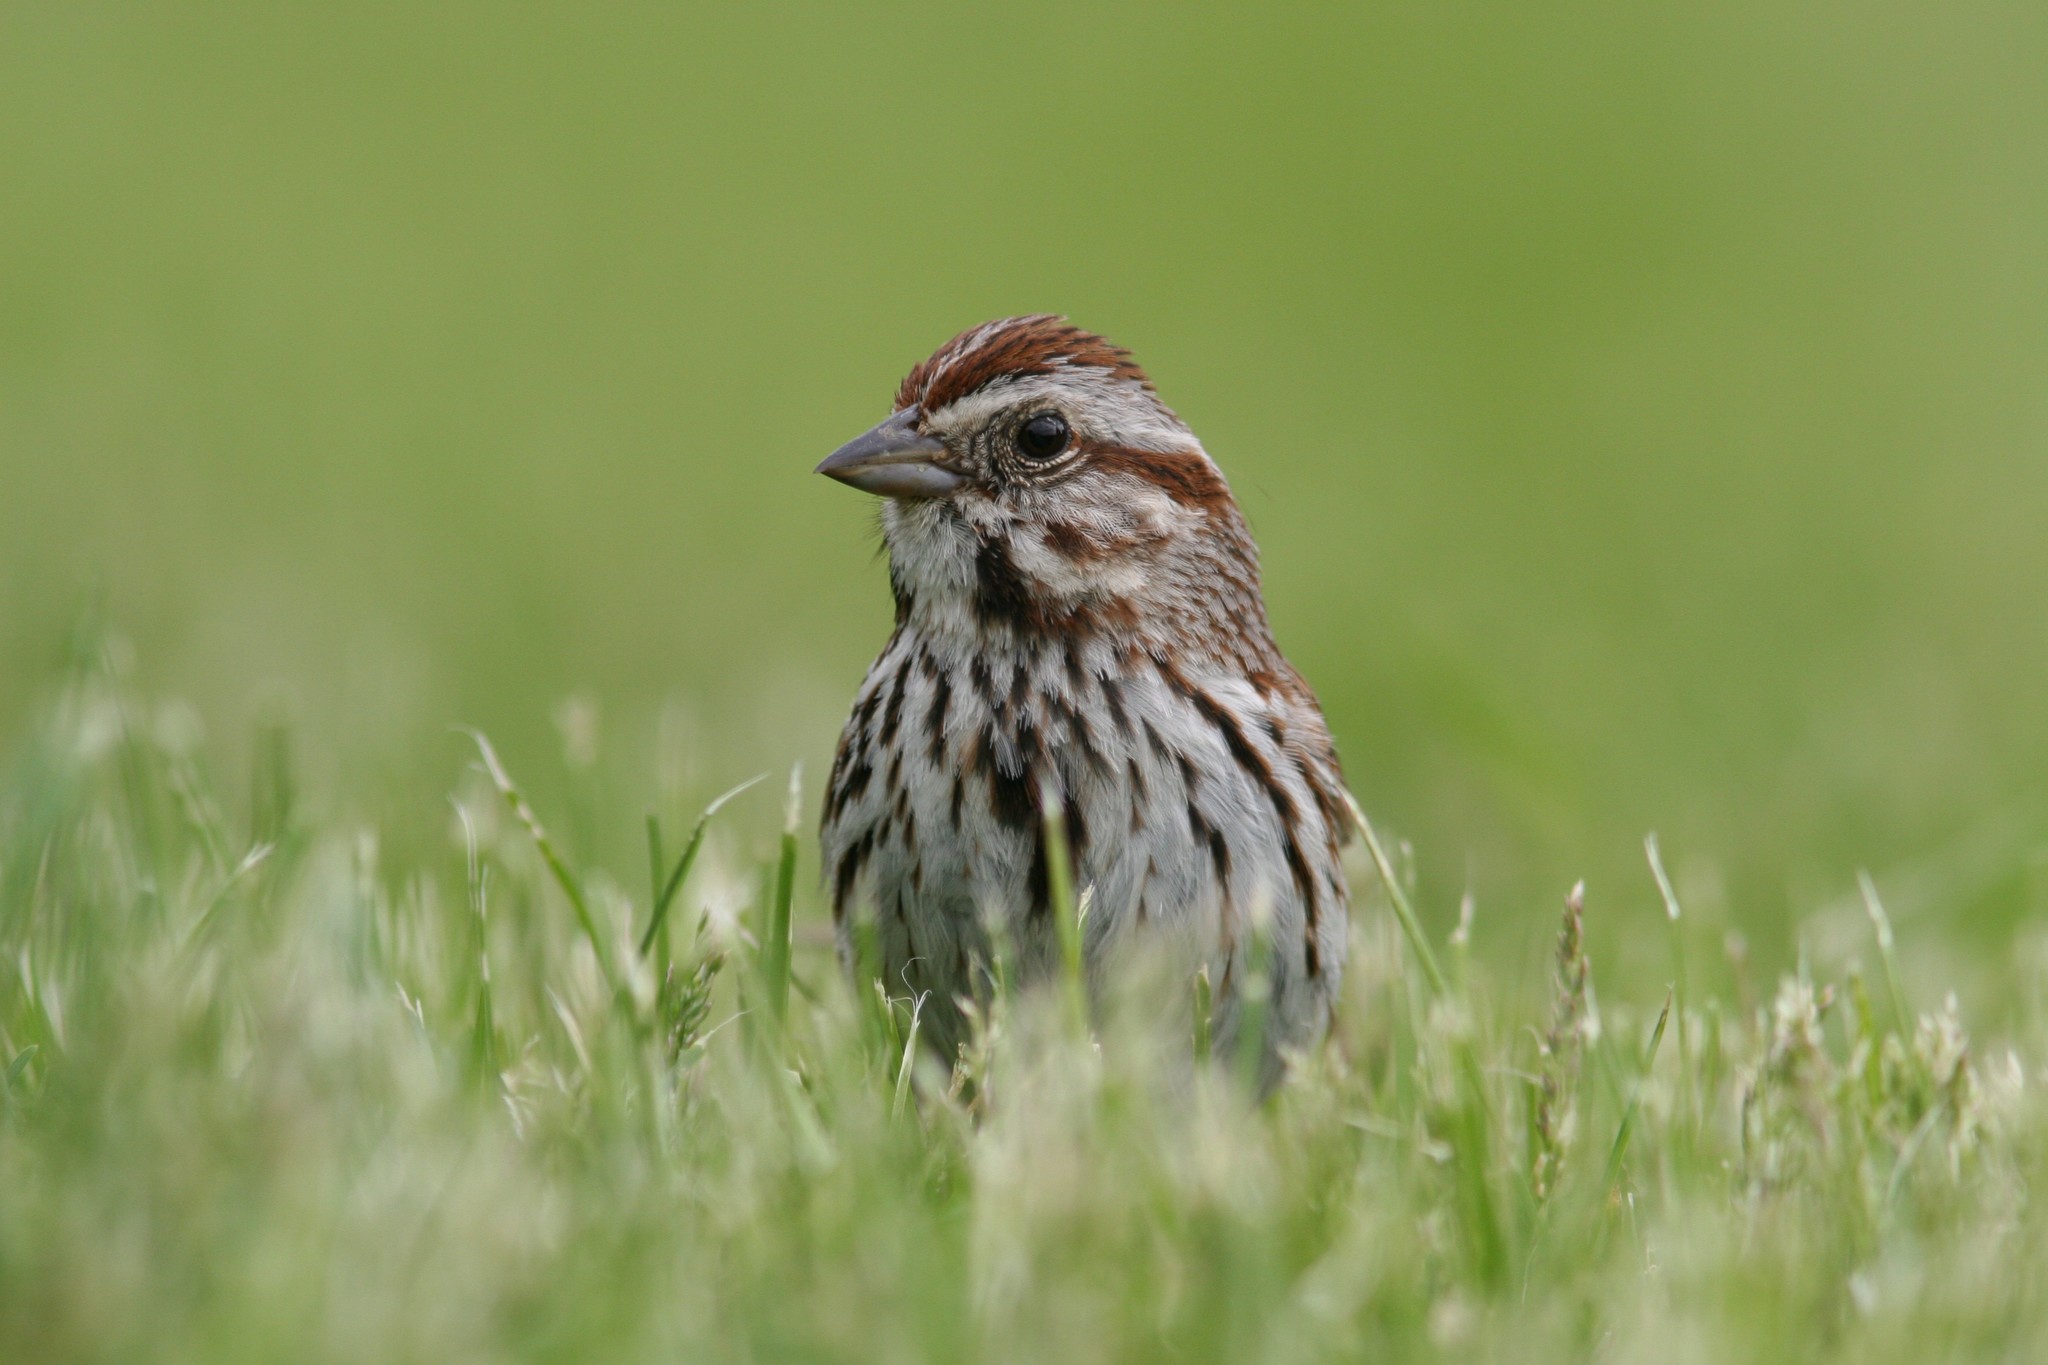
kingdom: Animalia
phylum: Chordata
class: Aves
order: Passeriformes
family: Passerellidae
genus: Melospiza
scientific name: Melospiza melodia
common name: Song sparrow
